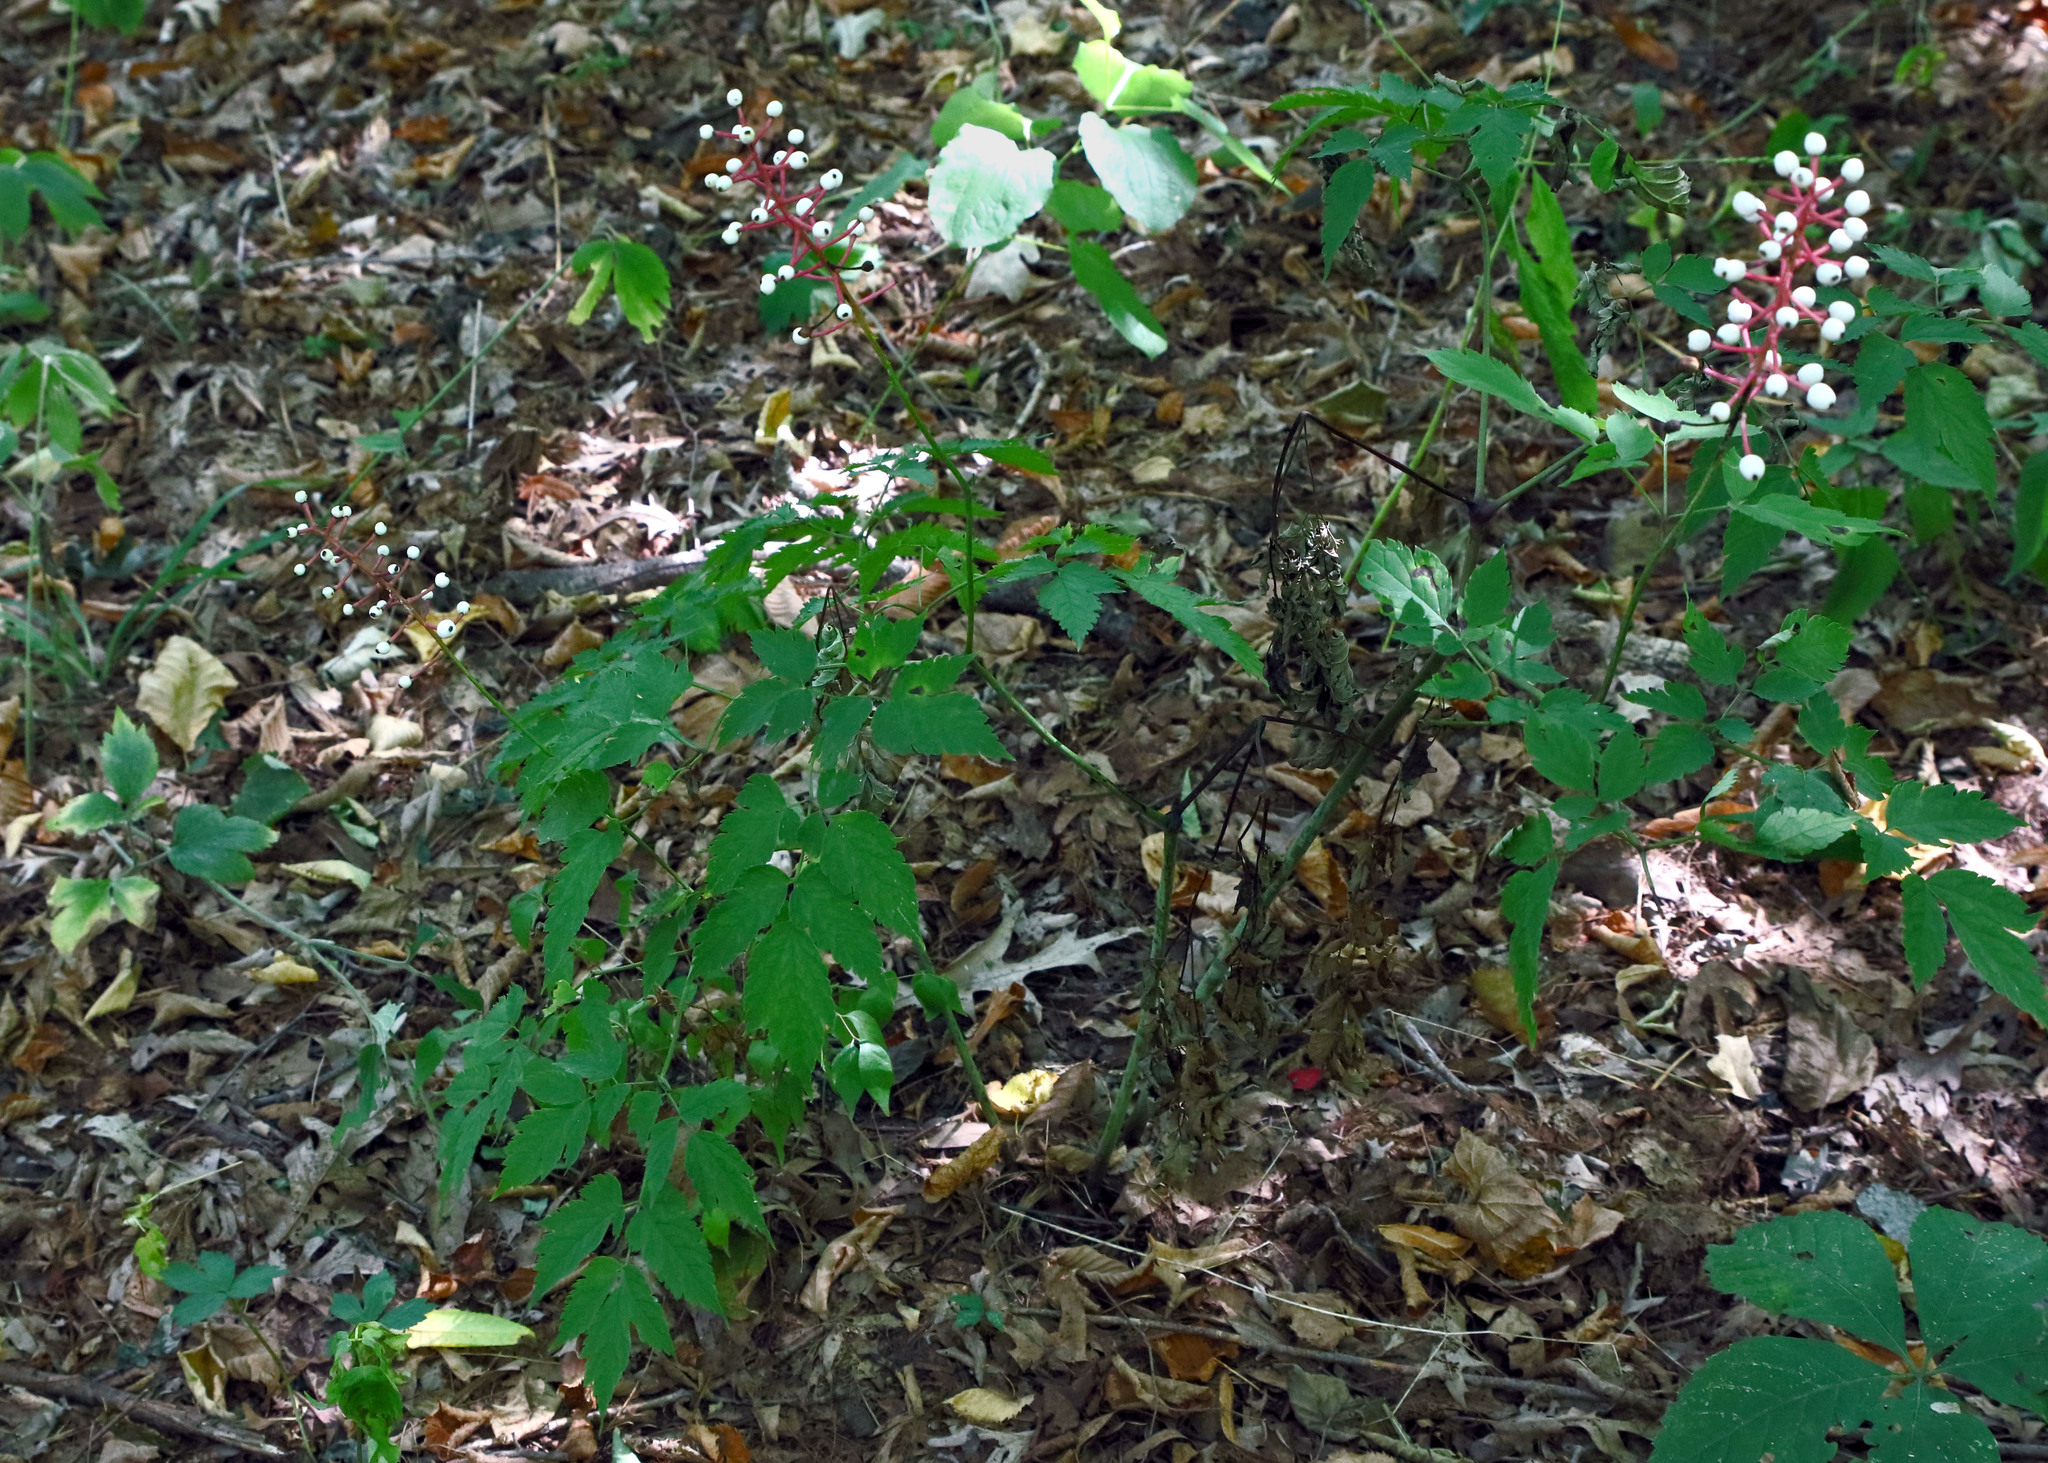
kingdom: Plantae
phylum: Tracheophyta
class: Magnoliopsida
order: Ranunculales
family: Ranunculaceae
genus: Actaea
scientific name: Actaea pachypoda
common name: Doll's-eyes
